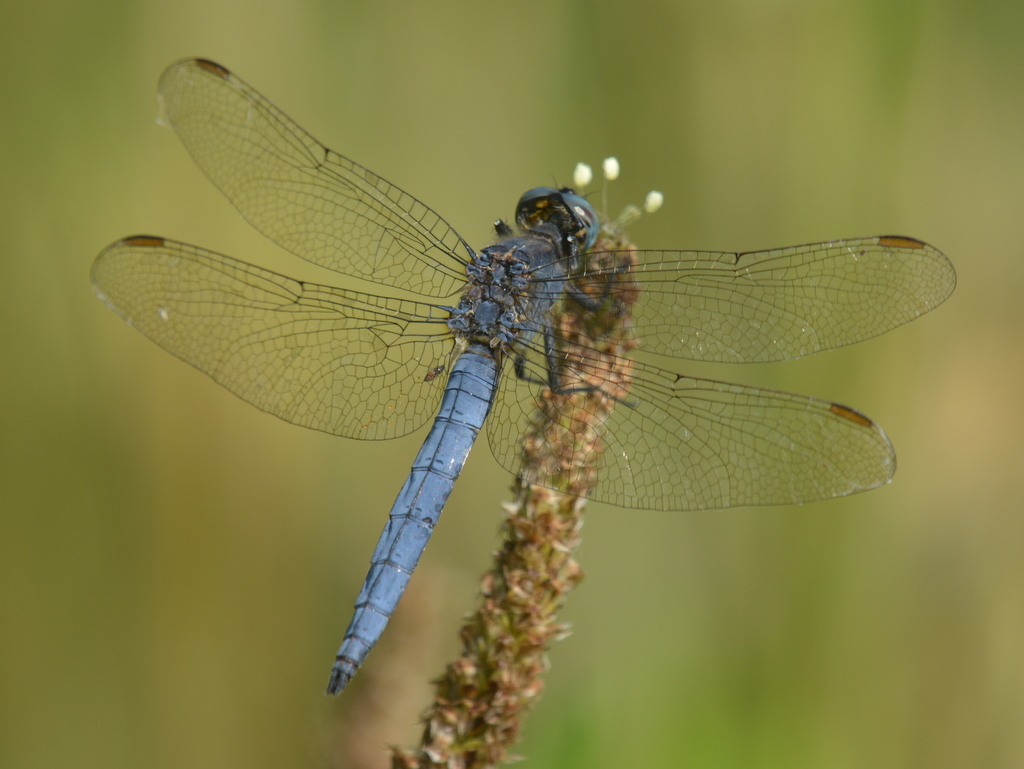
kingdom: Animalia
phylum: Arthropoda
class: Insecta
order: Odonata
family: Libellulidae
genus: Orthetrum
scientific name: Orthetrum coerulescens
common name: Keeled skimmer
